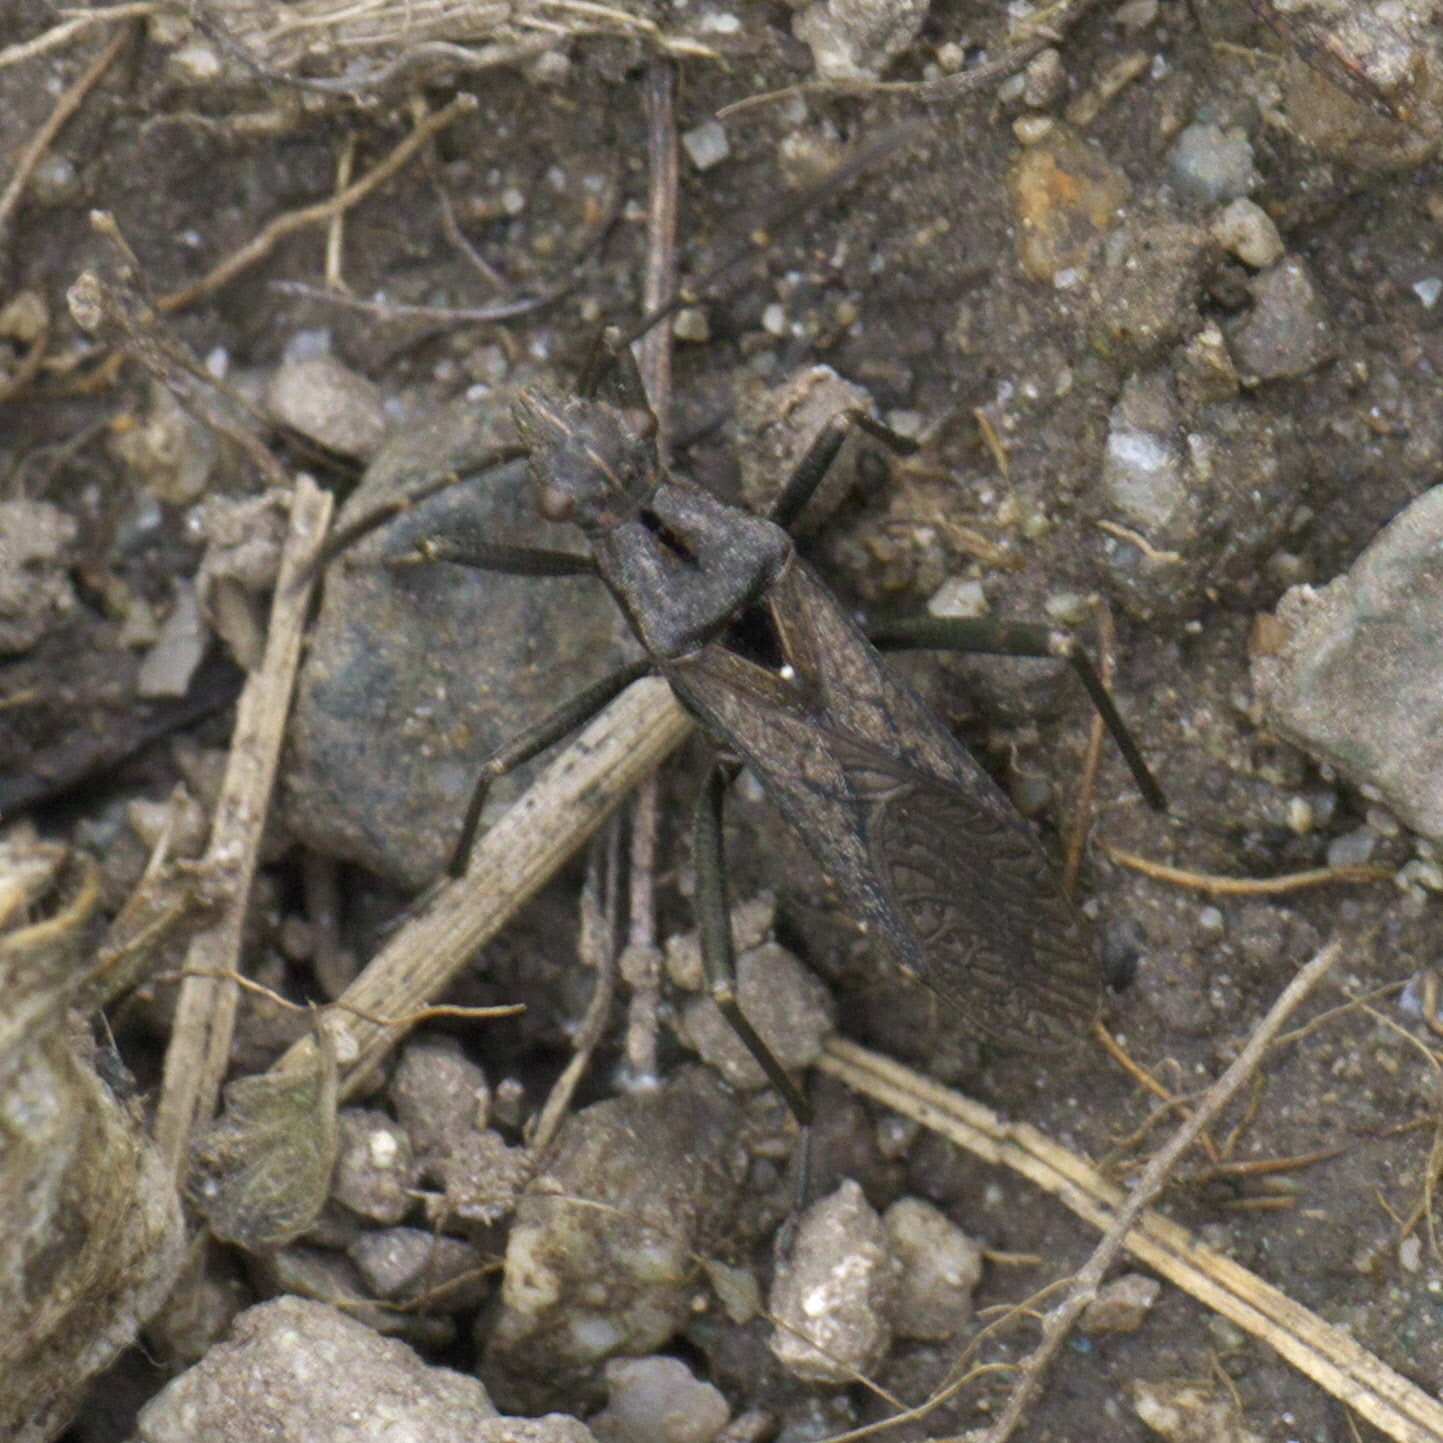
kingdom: Animalia
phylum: Arthropoda
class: Insecta
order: Hemiptera
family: Alydidae
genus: Alydus
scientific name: Alydus scutellatus
